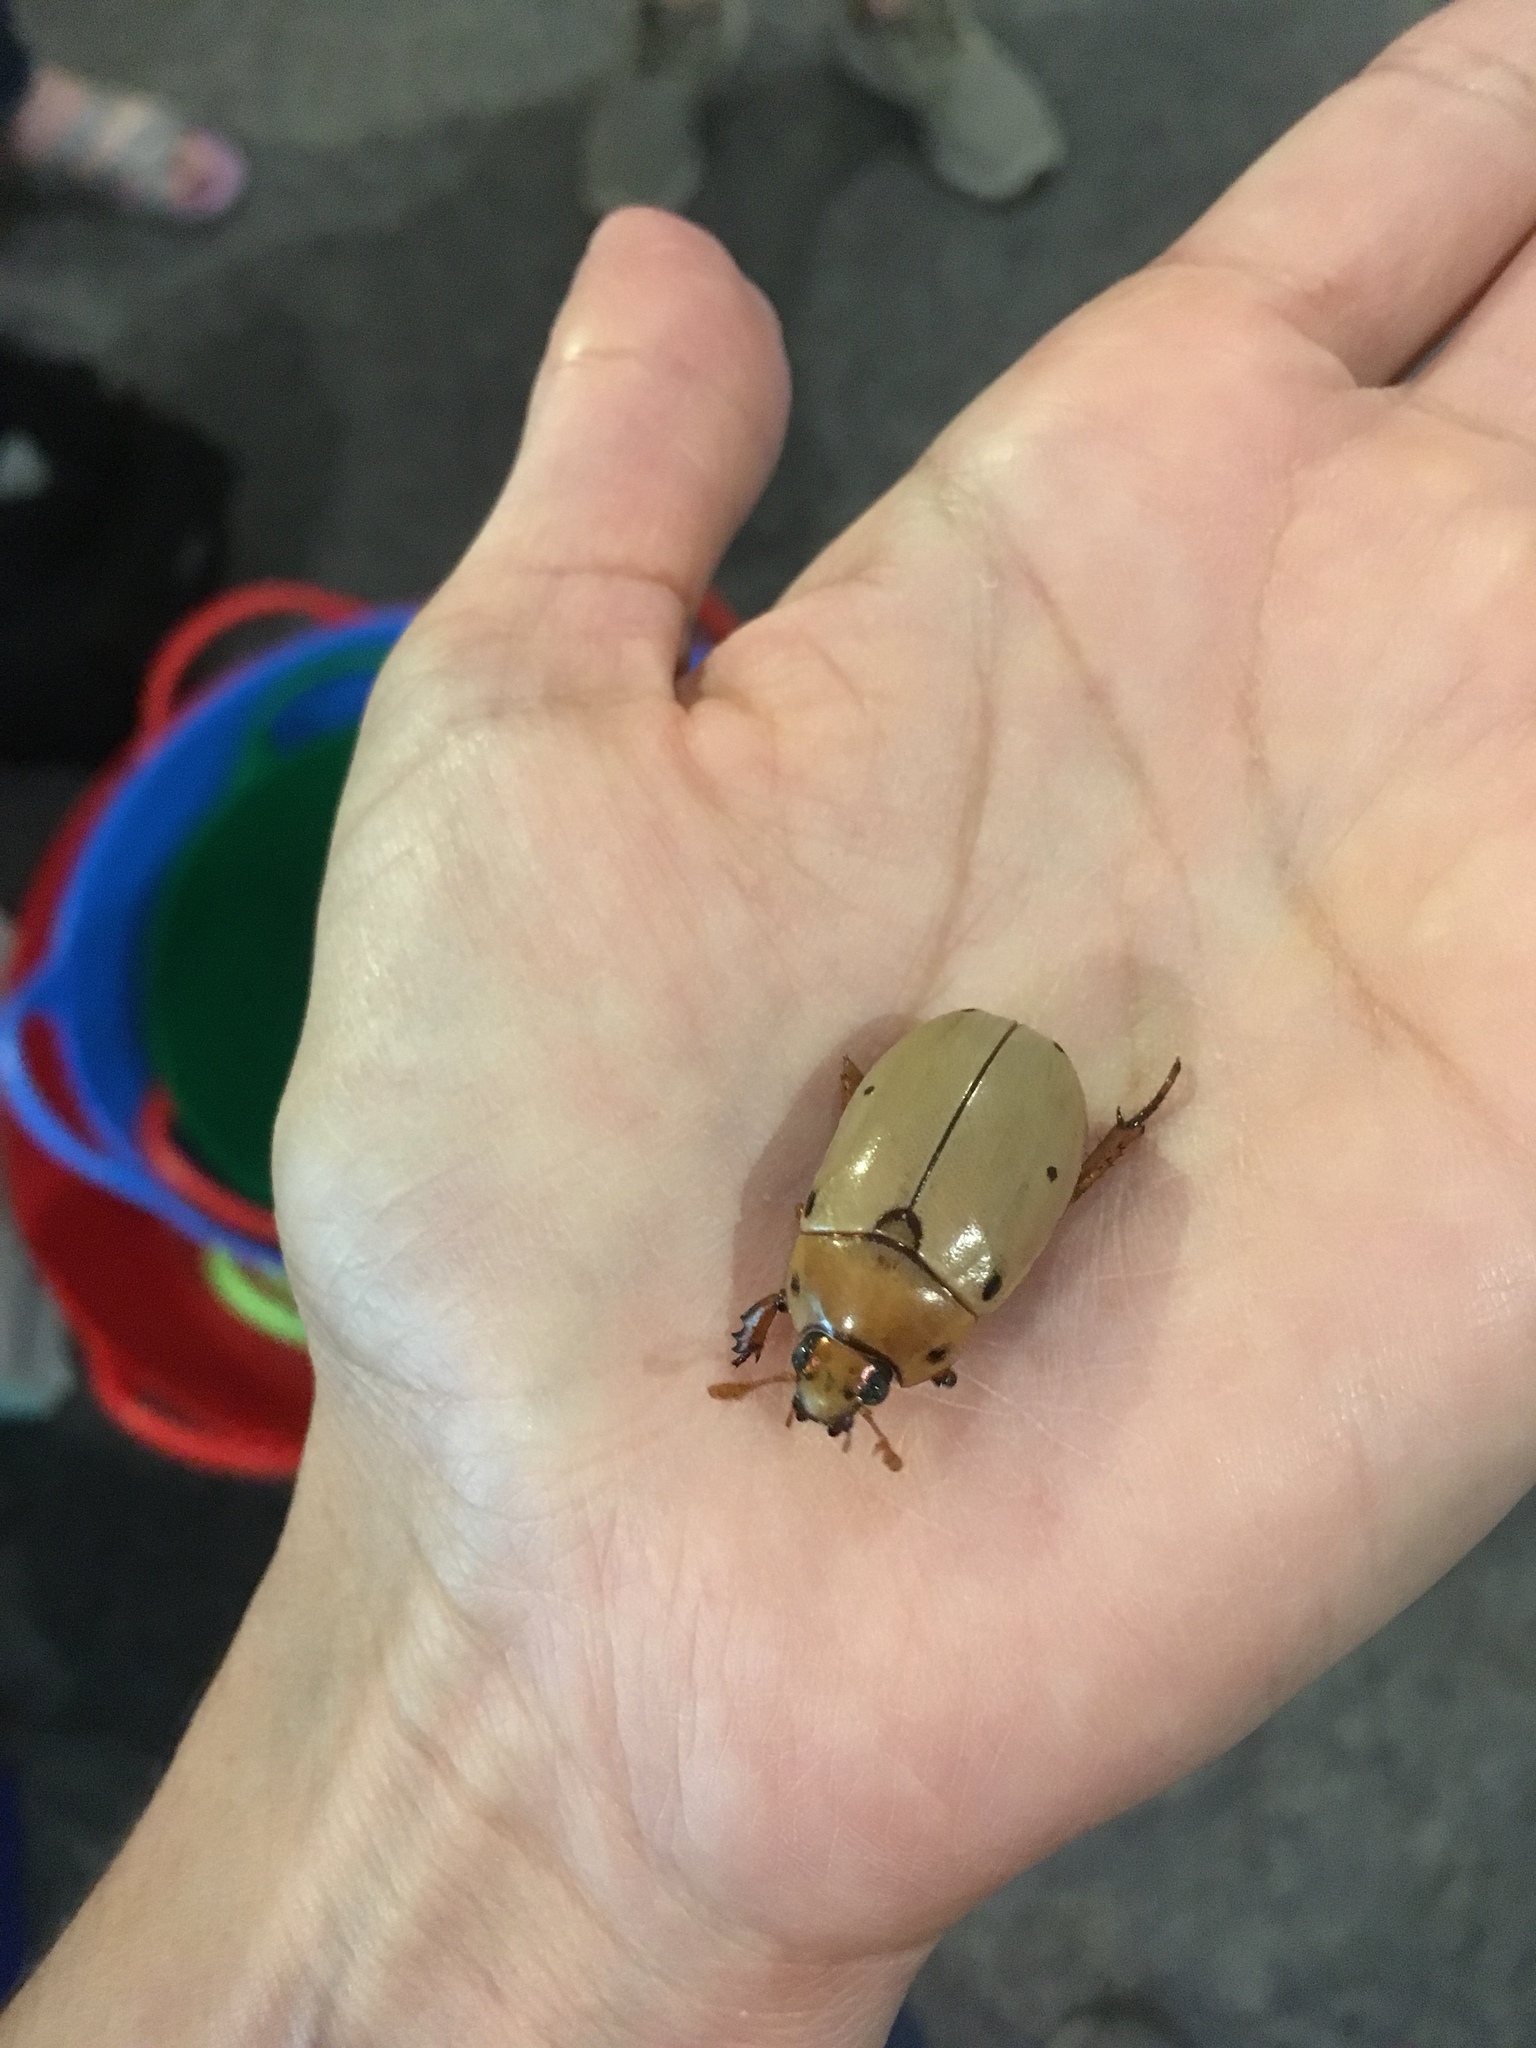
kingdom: Animalia
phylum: Arthropoda
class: Insecta
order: Coleoptera
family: Scarabaeidae
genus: Pelidnota
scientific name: Pelidnota punctata
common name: Grapevine beetle
